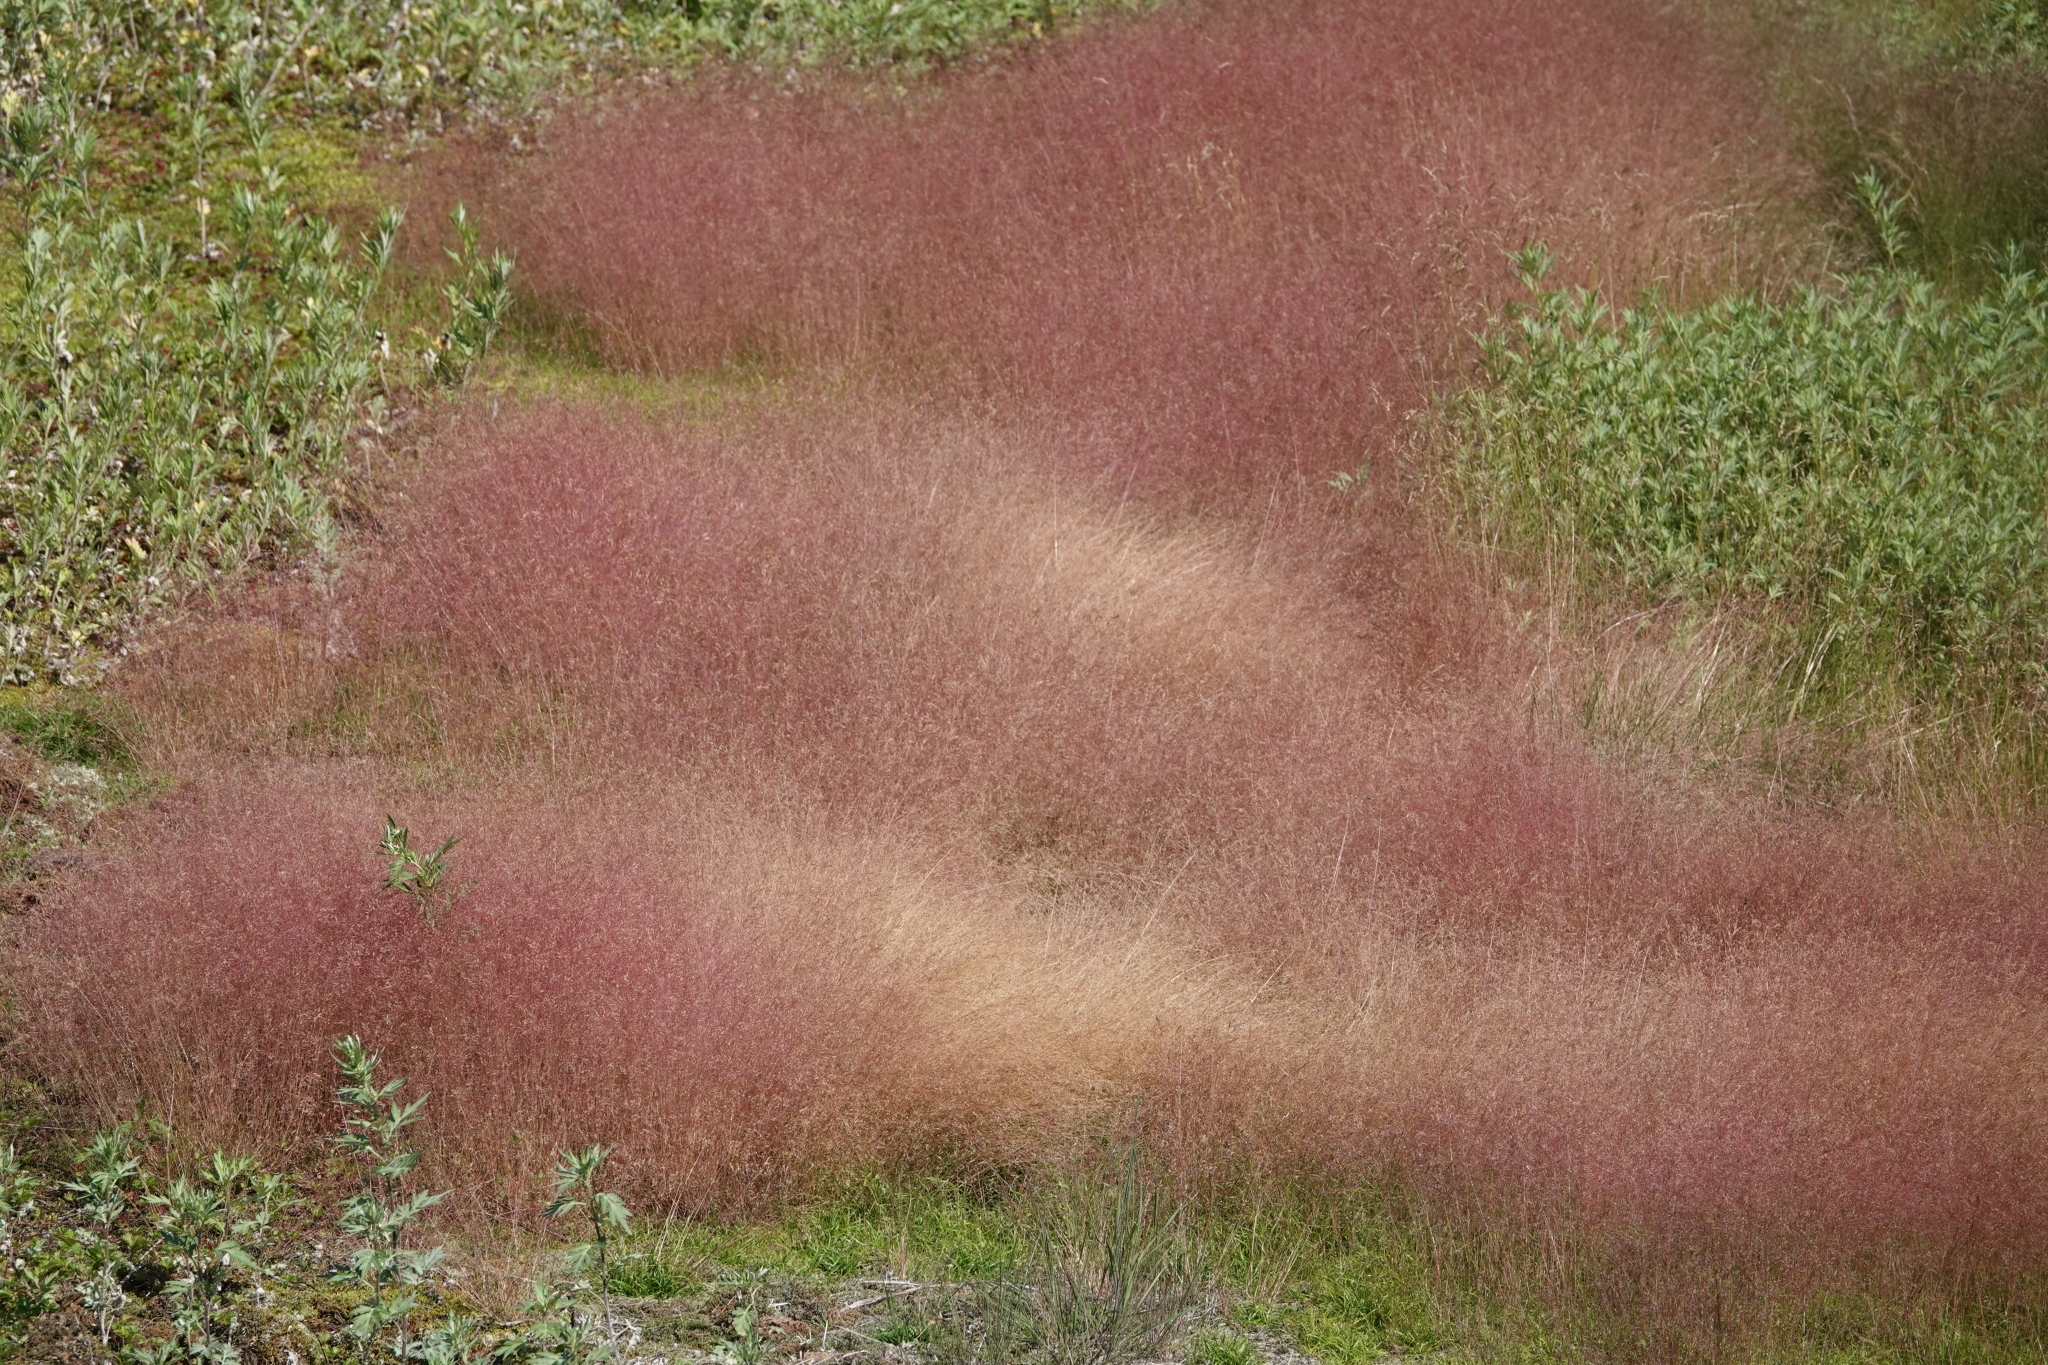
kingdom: Plantae
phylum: Tracheophyta
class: Liliopsida
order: Poales
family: Poaceae
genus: Agrostis
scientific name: Agrostis scabra
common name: Rough bent
